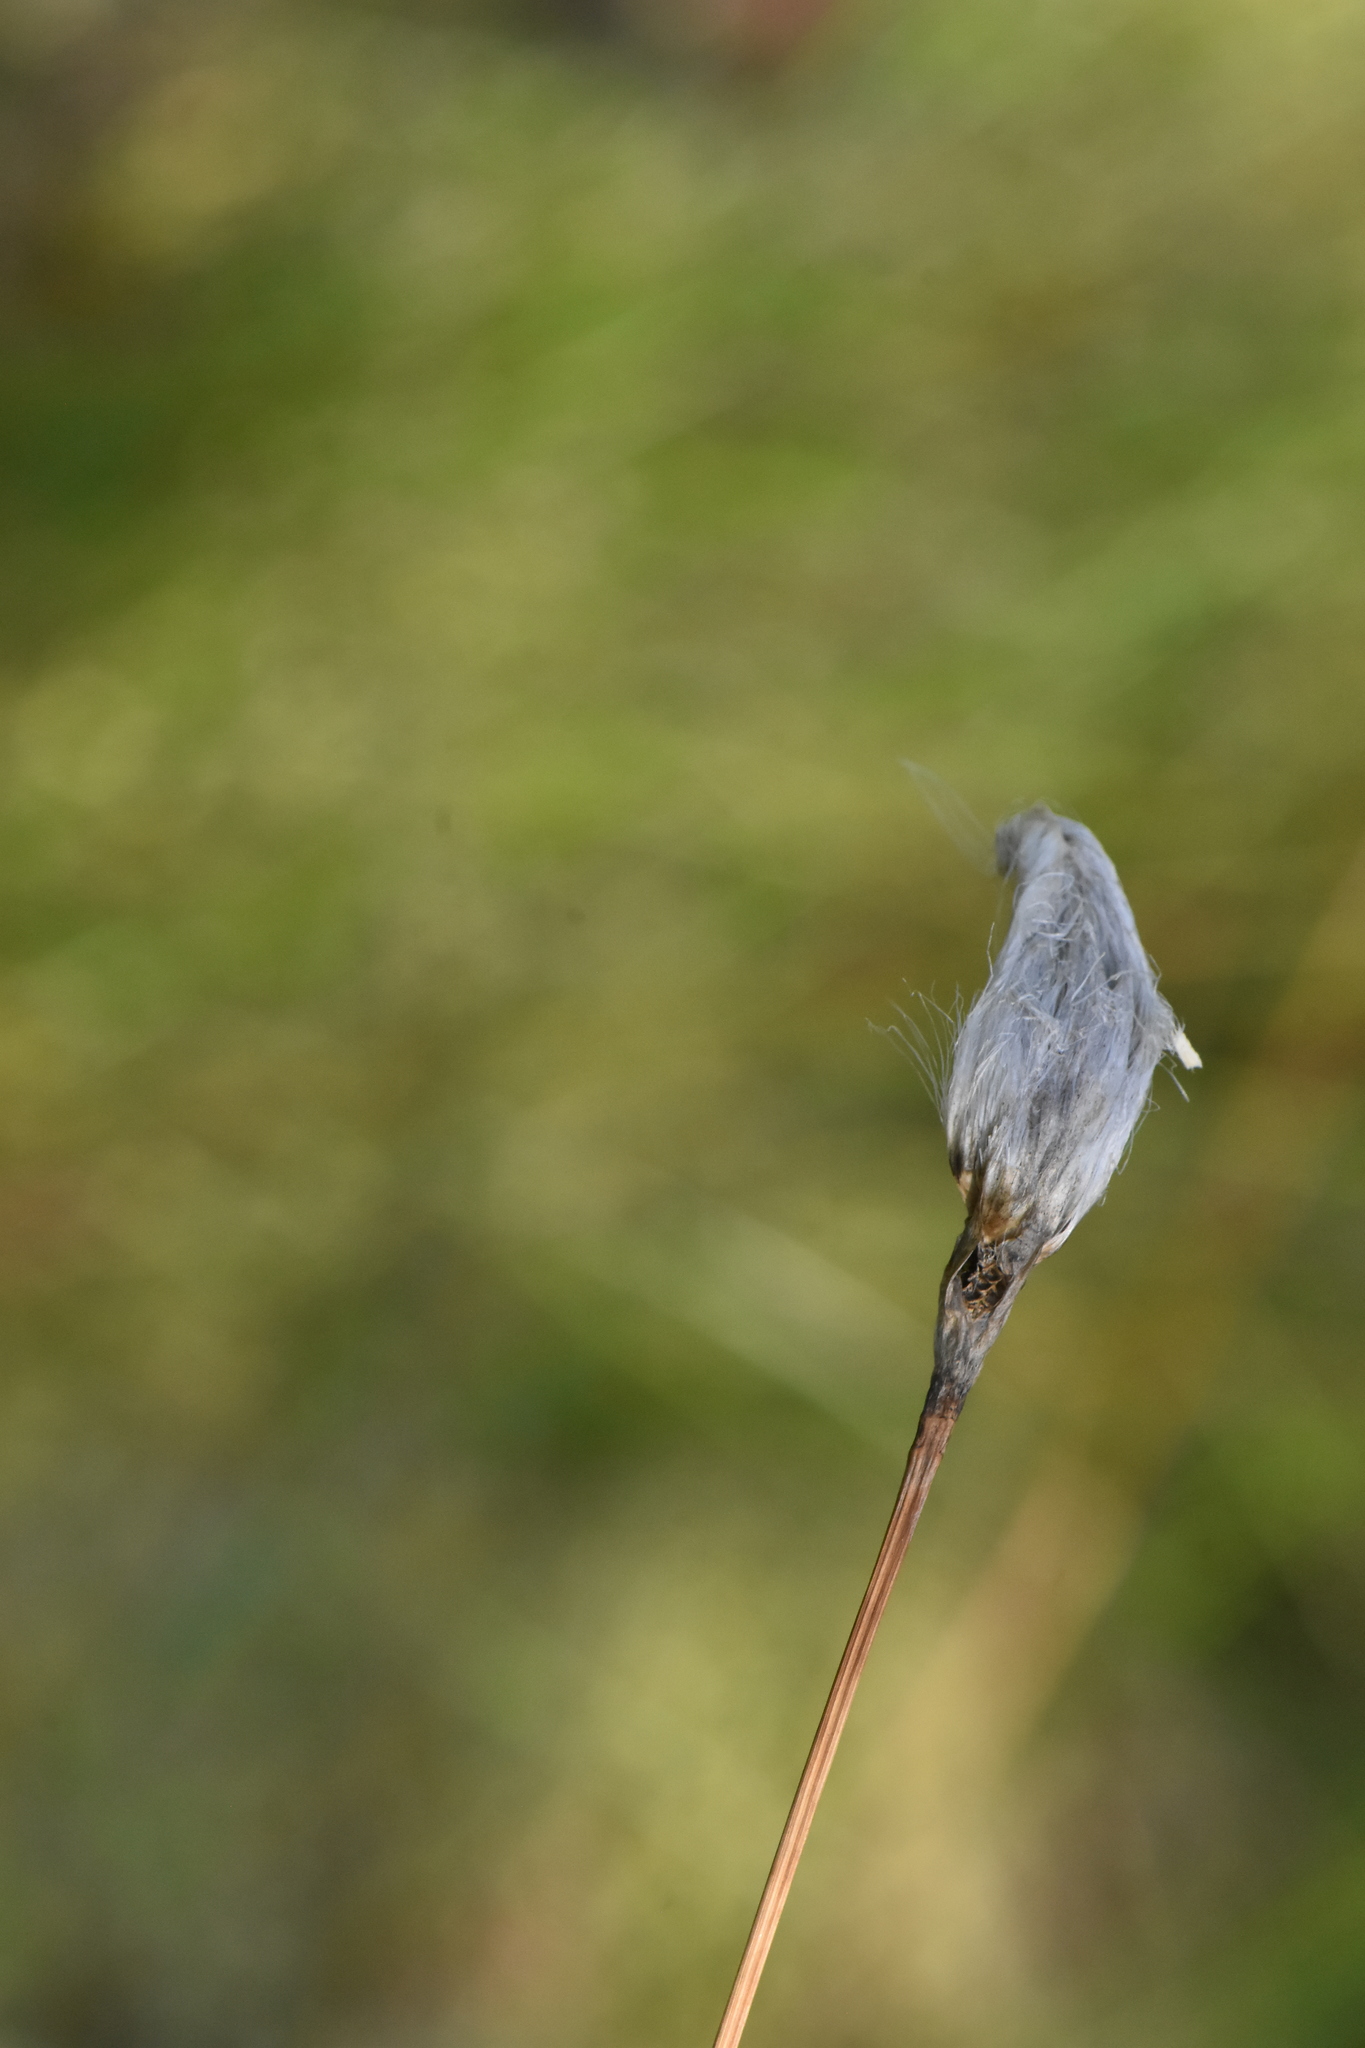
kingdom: Plantae
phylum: Tracheophyta
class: Liliopsida
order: Poales
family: Cyperaceae
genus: Eriophorum
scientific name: Eriophorum vaginatum
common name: Hare's-tail cottongrass
